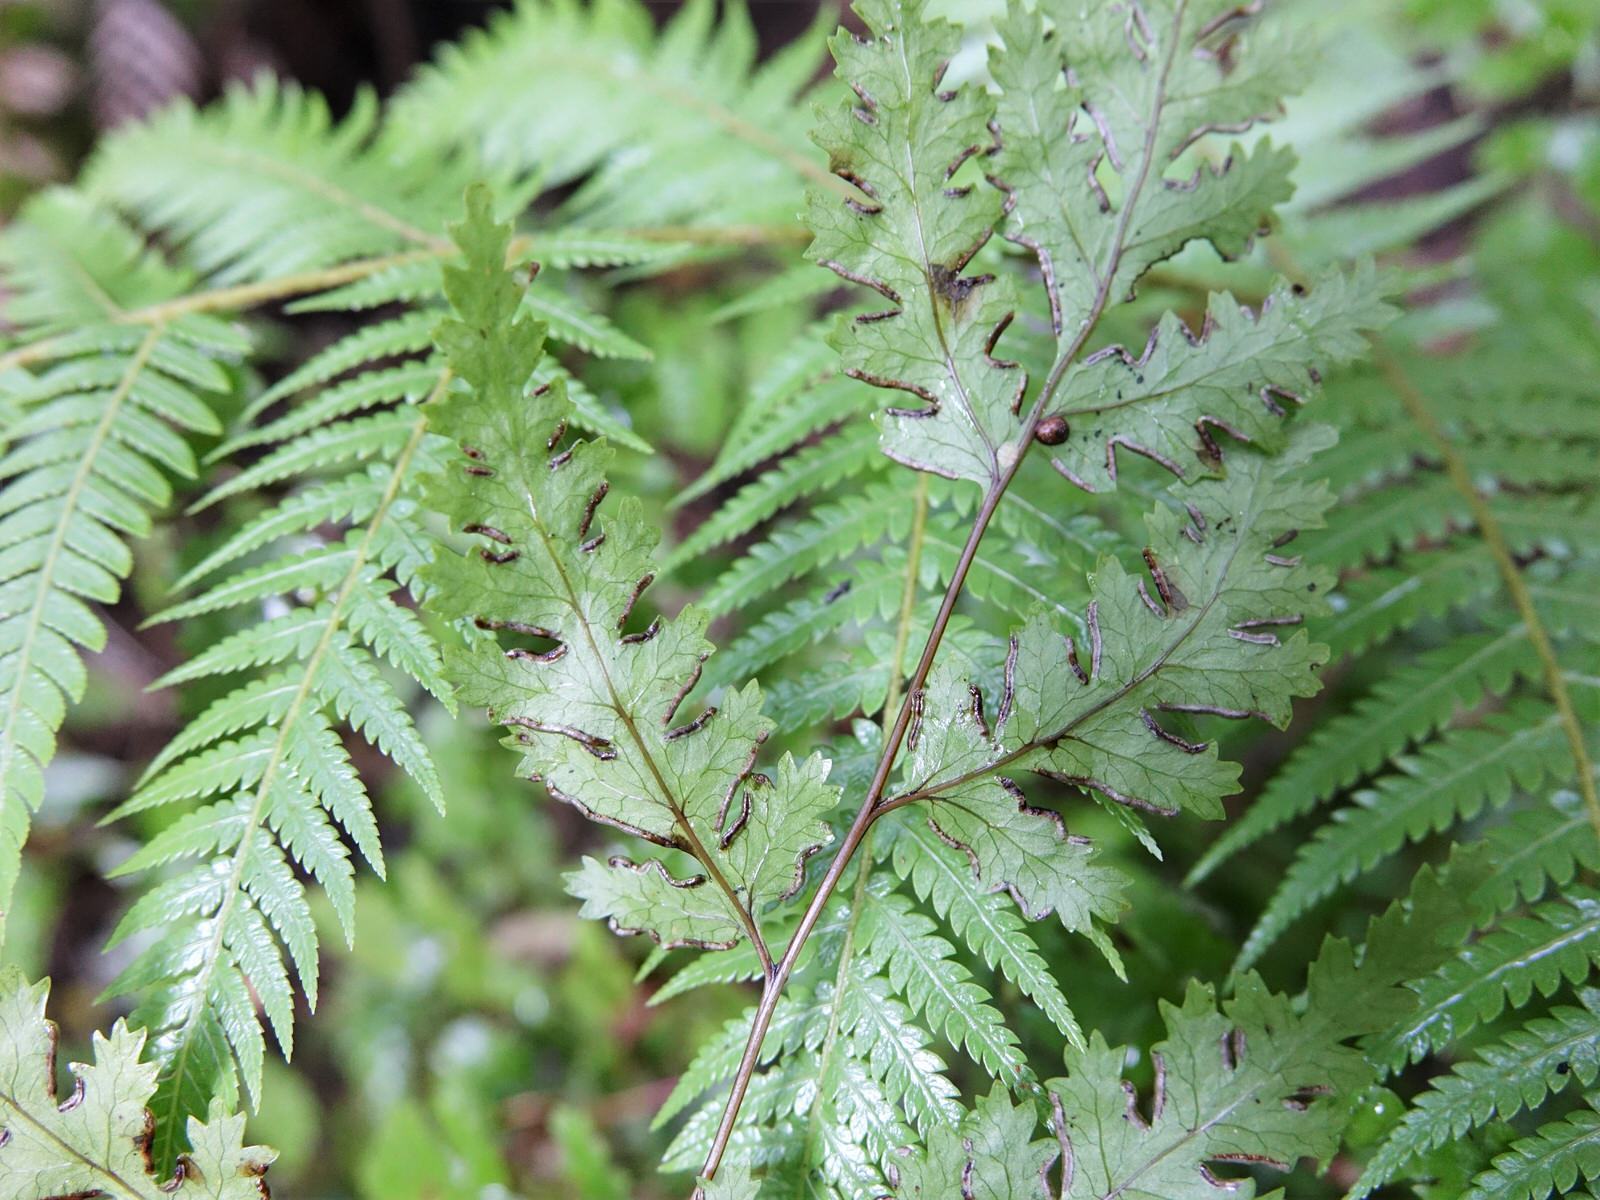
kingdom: Plantae
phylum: Tracheophyta
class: Polypodiopsida
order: Polypodiales
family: Pteridaceae
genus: Pteris
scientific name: Pteris macilenta
